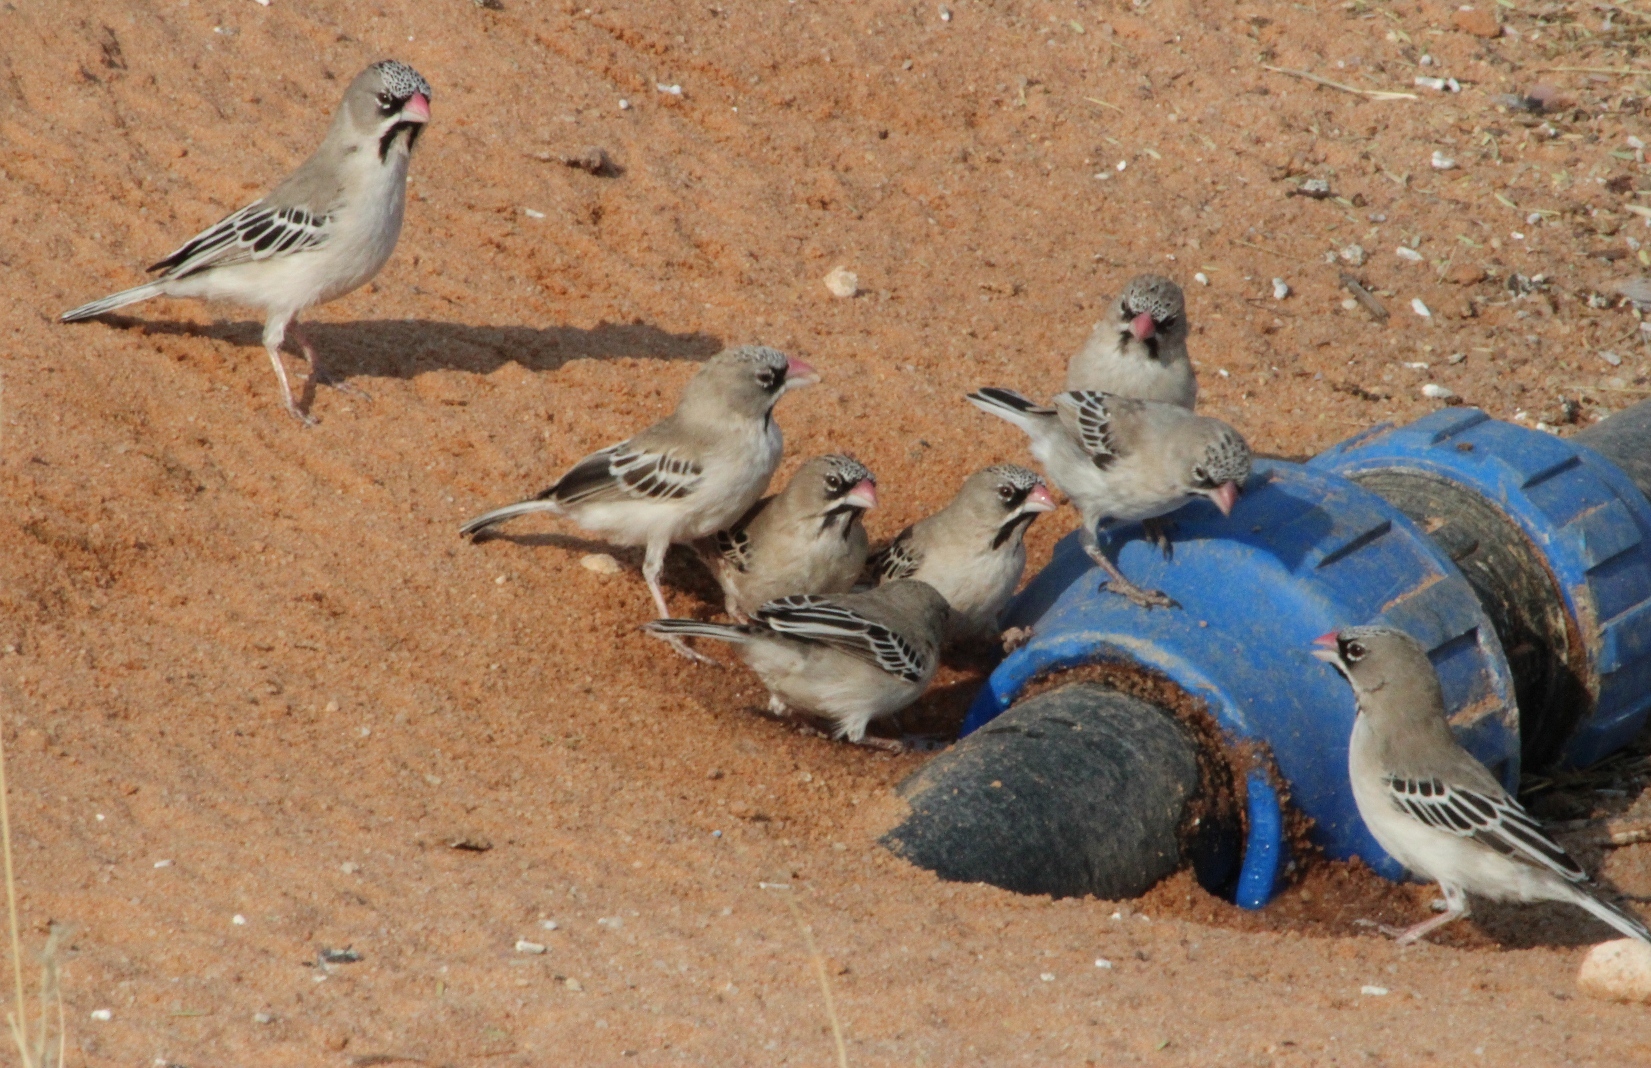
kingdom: Animalia
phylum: Chordata
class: Aves
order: Passeriformes
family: Ploceidae
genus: Sporopipes
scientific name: Sporopipes squamifrons
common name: Scaly-feathered weaver
